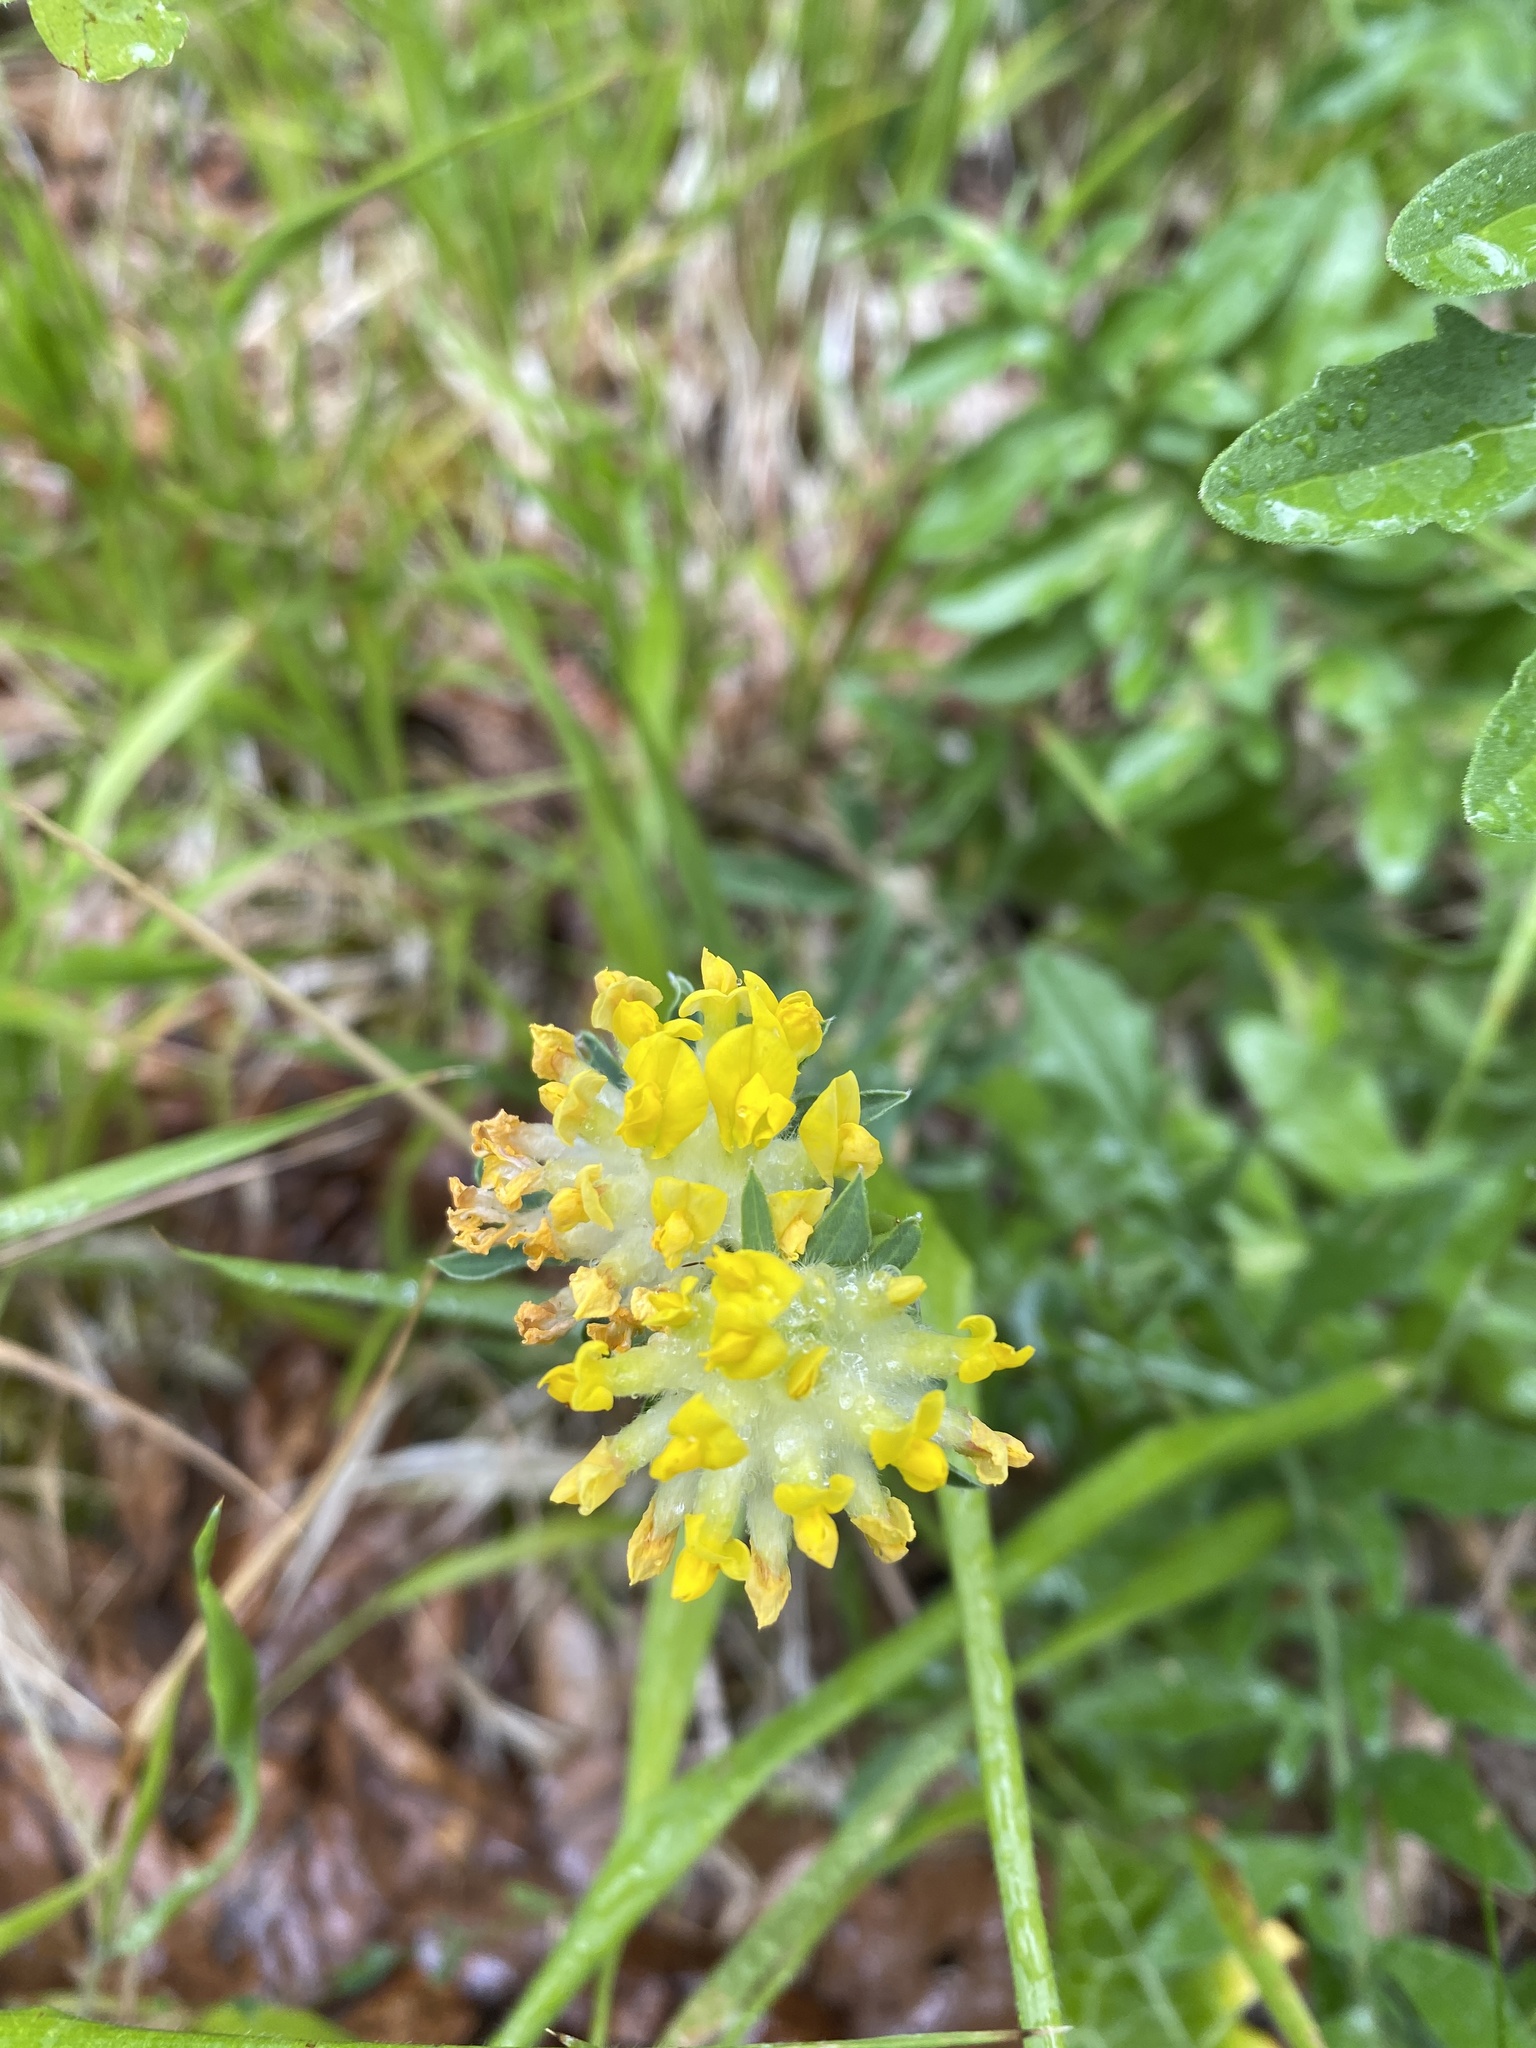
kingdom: Plantae
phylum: Tracheophyta
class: Magnoliopsida
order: Fabales
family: Fabaceae
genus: Anthyllis
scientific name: Anthyllis vulneraria
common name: Kidney vetch
